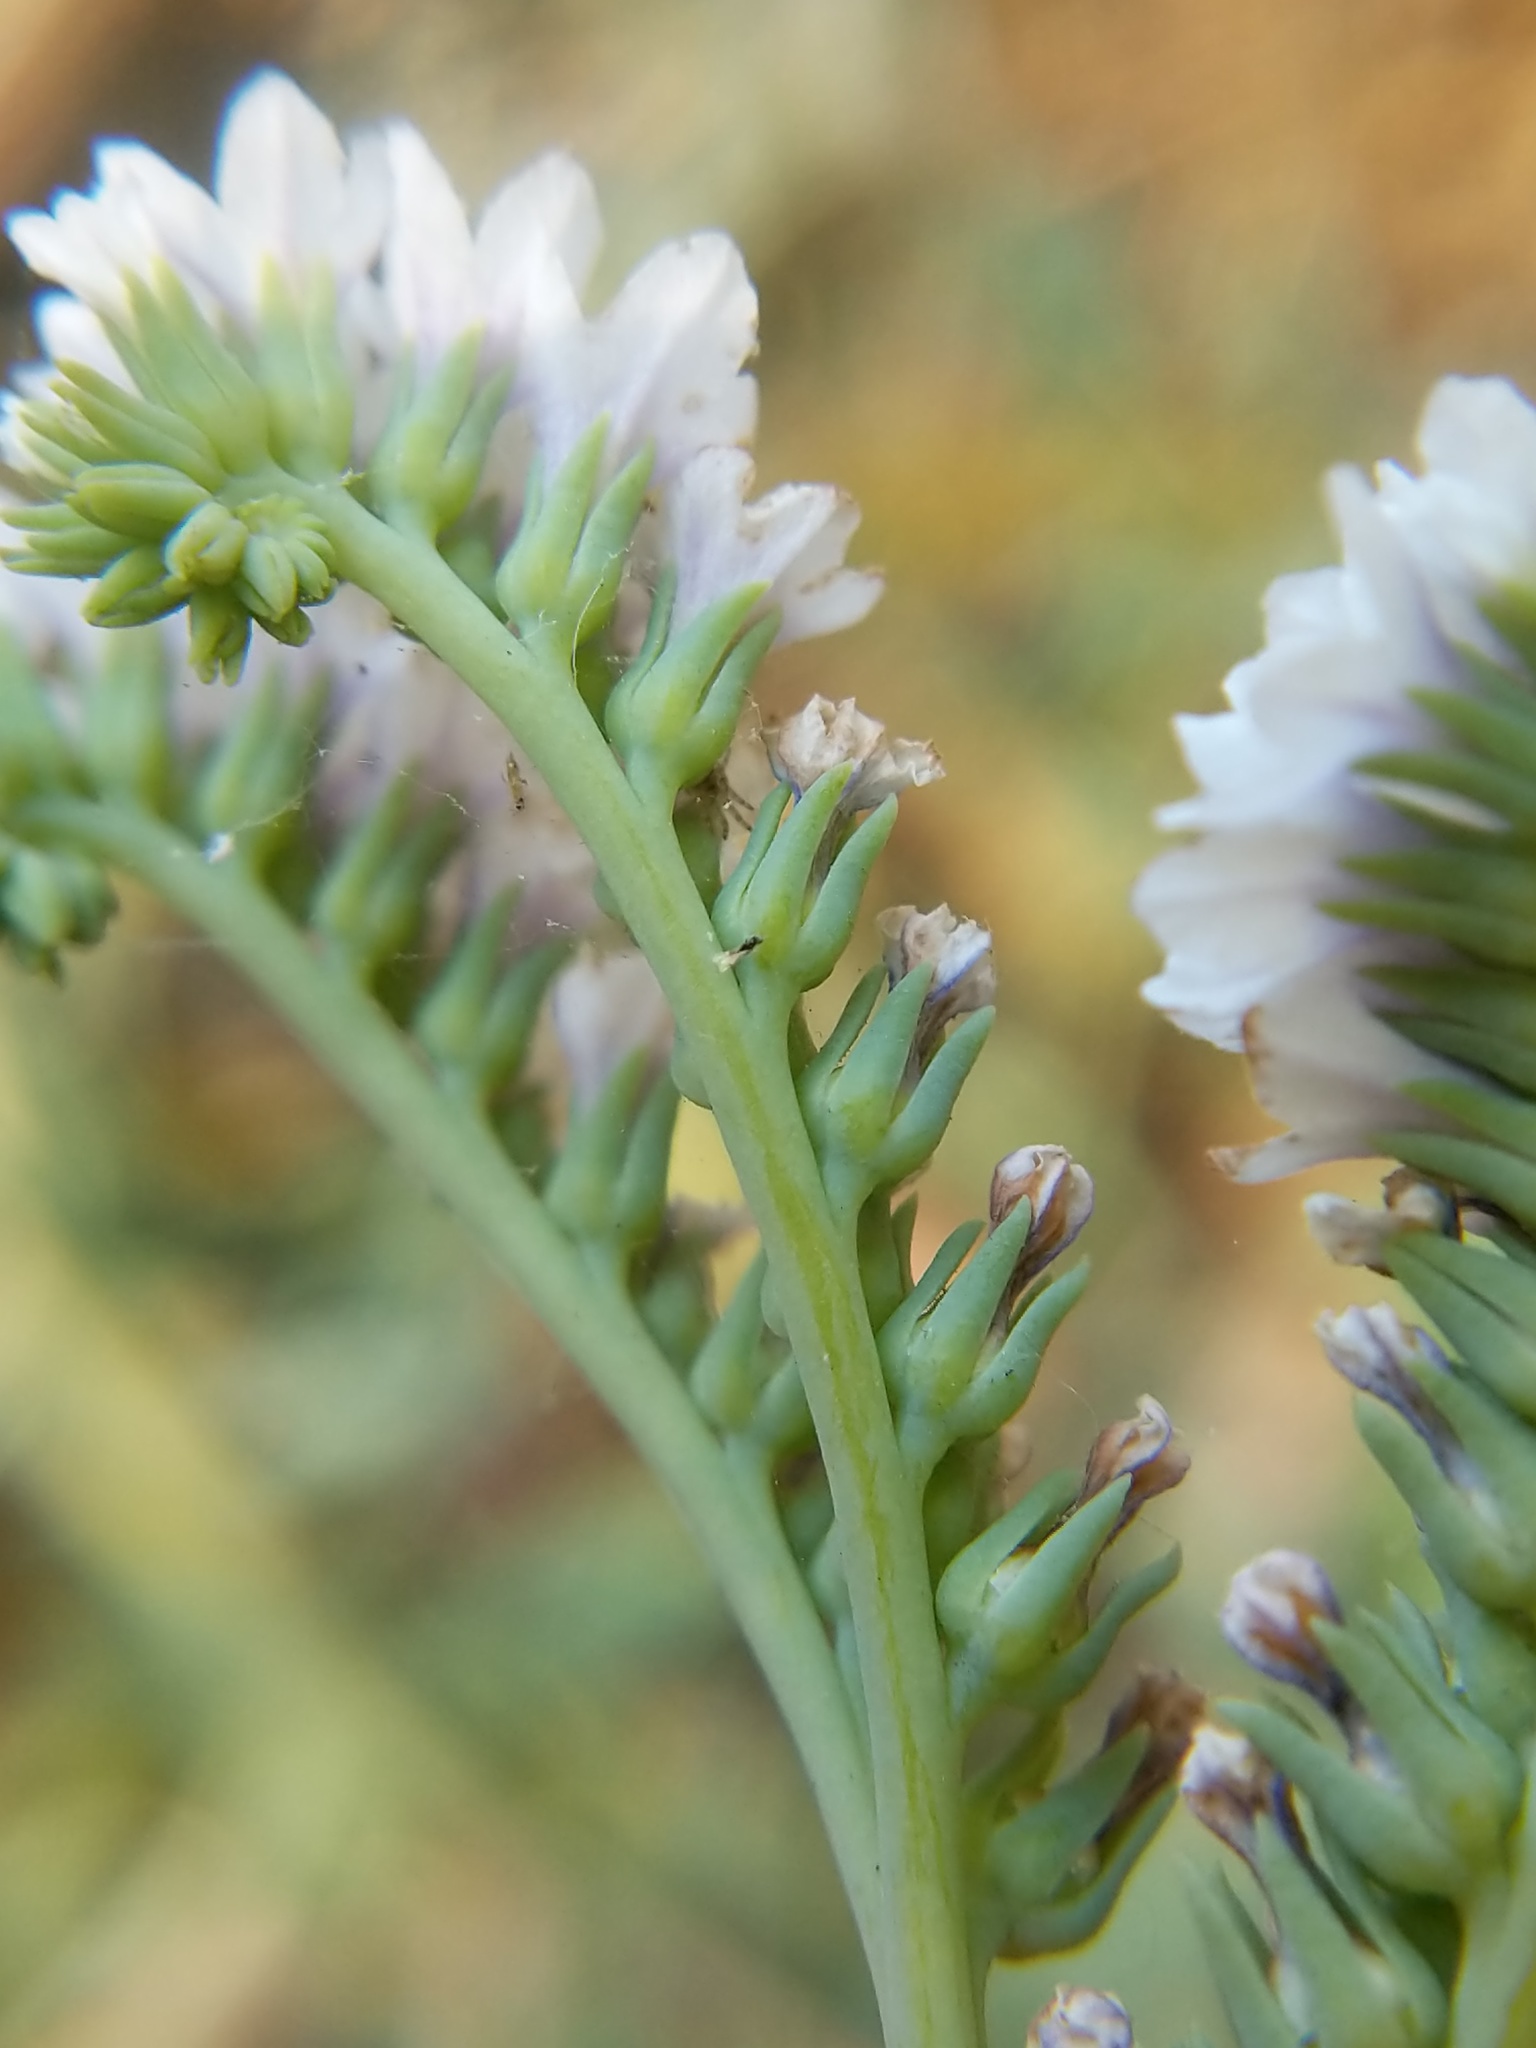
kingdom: Plantae
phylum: Tracheophyta
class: Magnoliopsida
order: Boraginales
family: Heliotropiaceae
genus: Heliotropium
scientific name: Heliotropium curassavicum
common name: Seaside heliotrope
